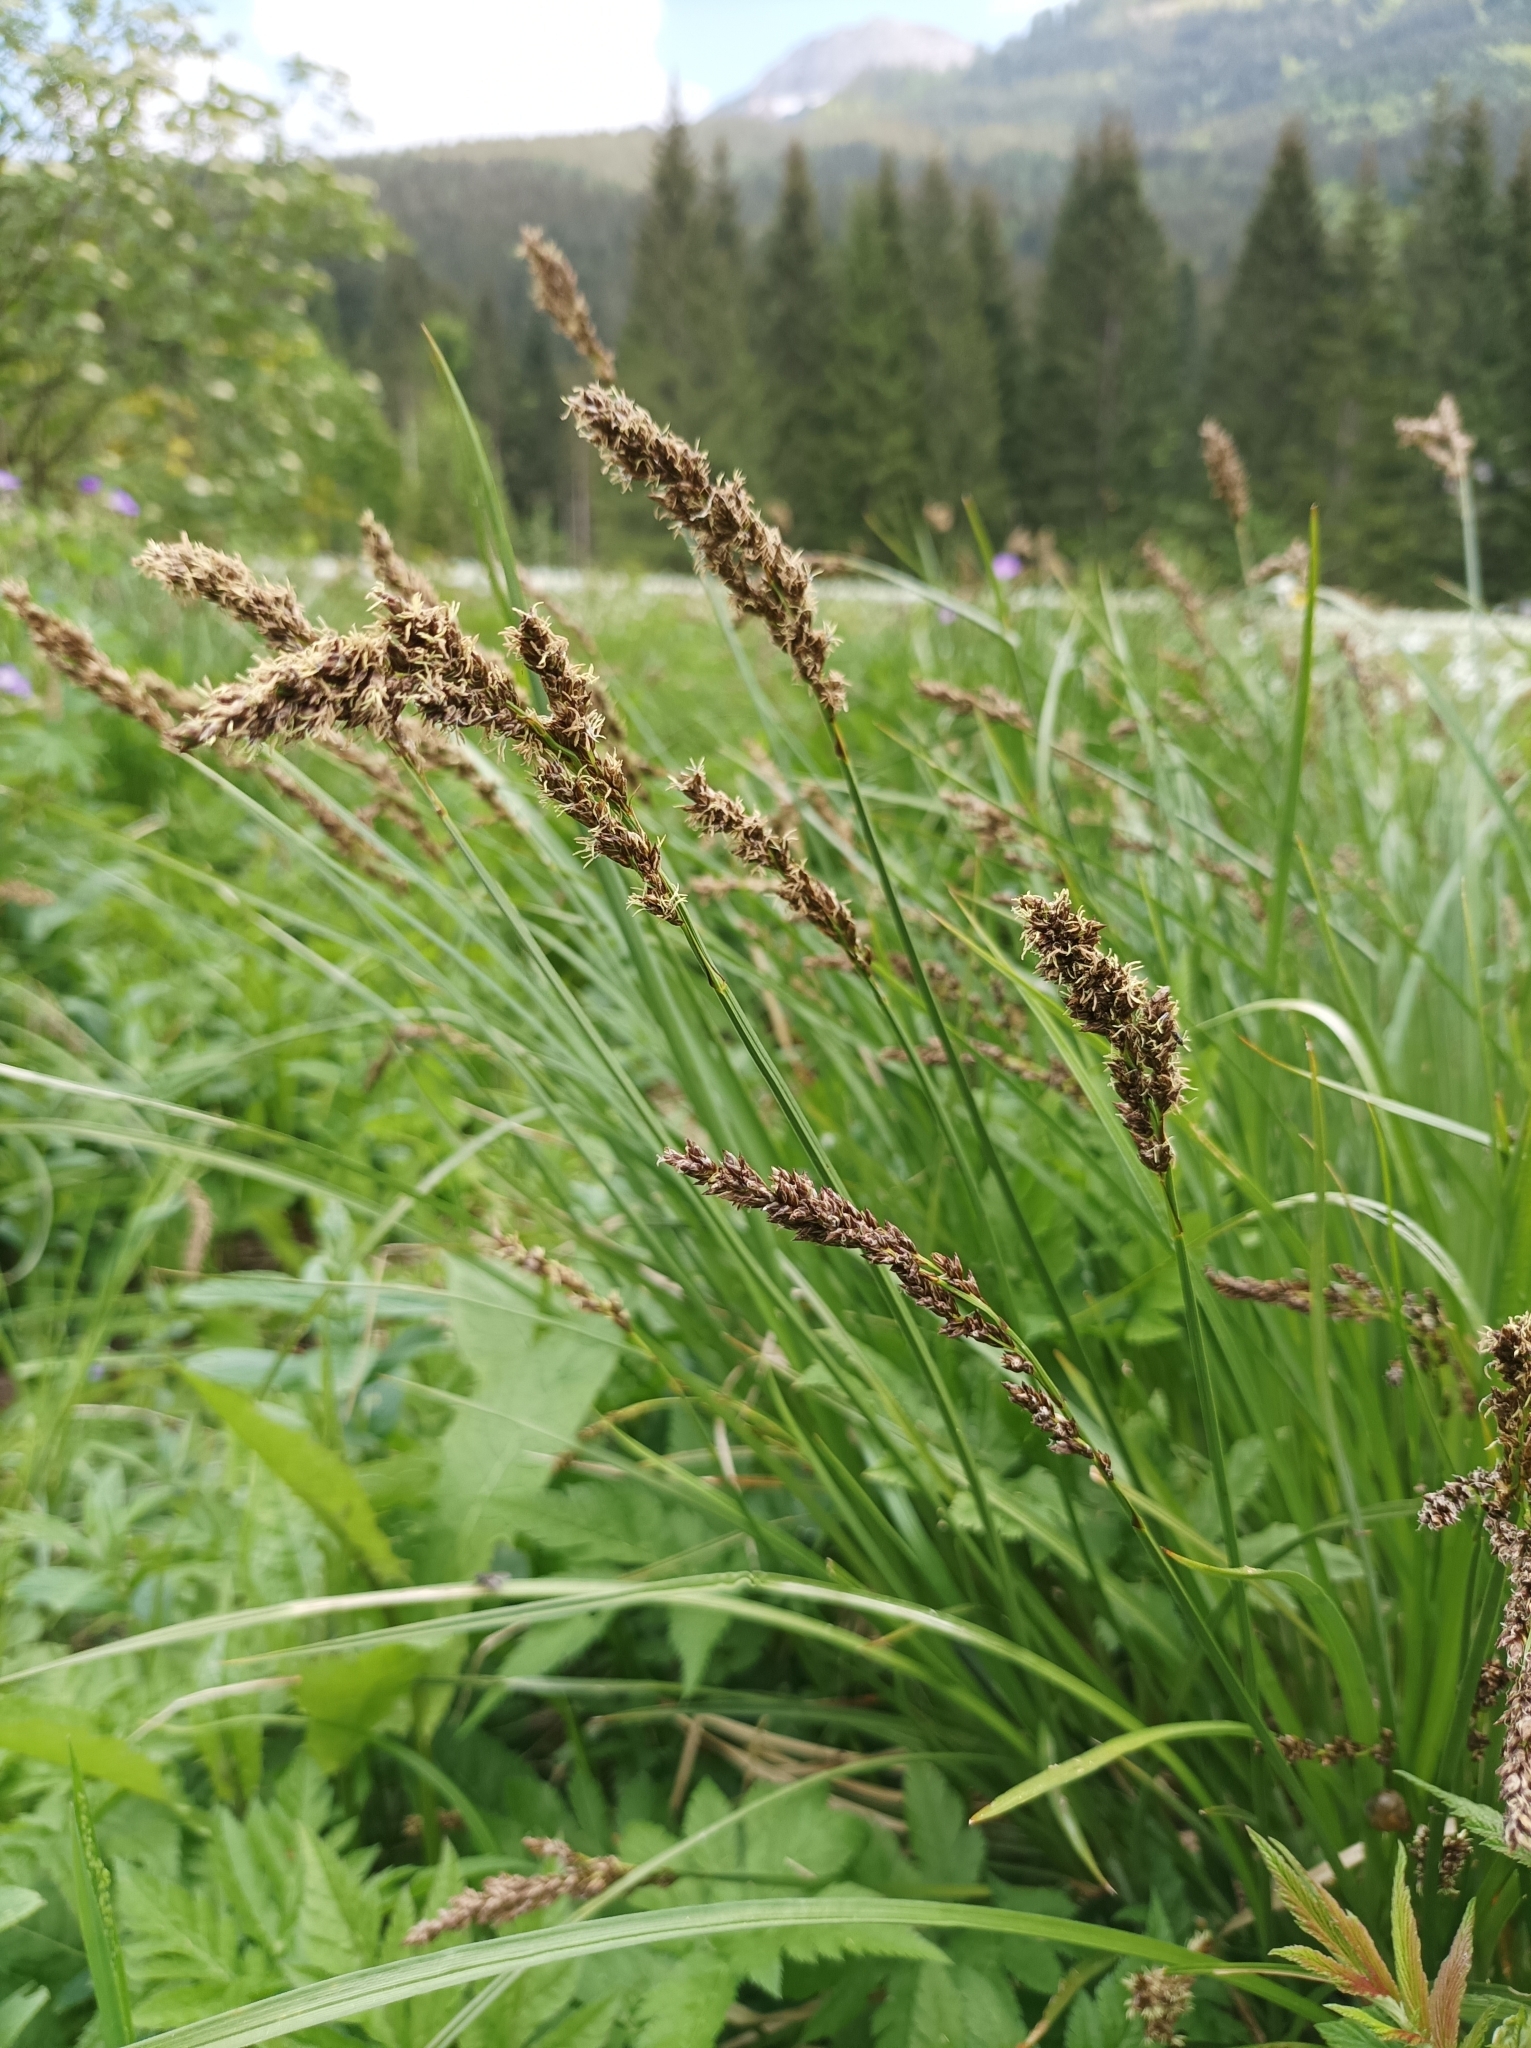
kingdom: Plantae
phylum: Tracheophyta
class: Liliopsida
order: Poales
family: Cyperaceae
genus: Carex
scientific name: Carex paniculata
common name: Greater tussock-sedge
